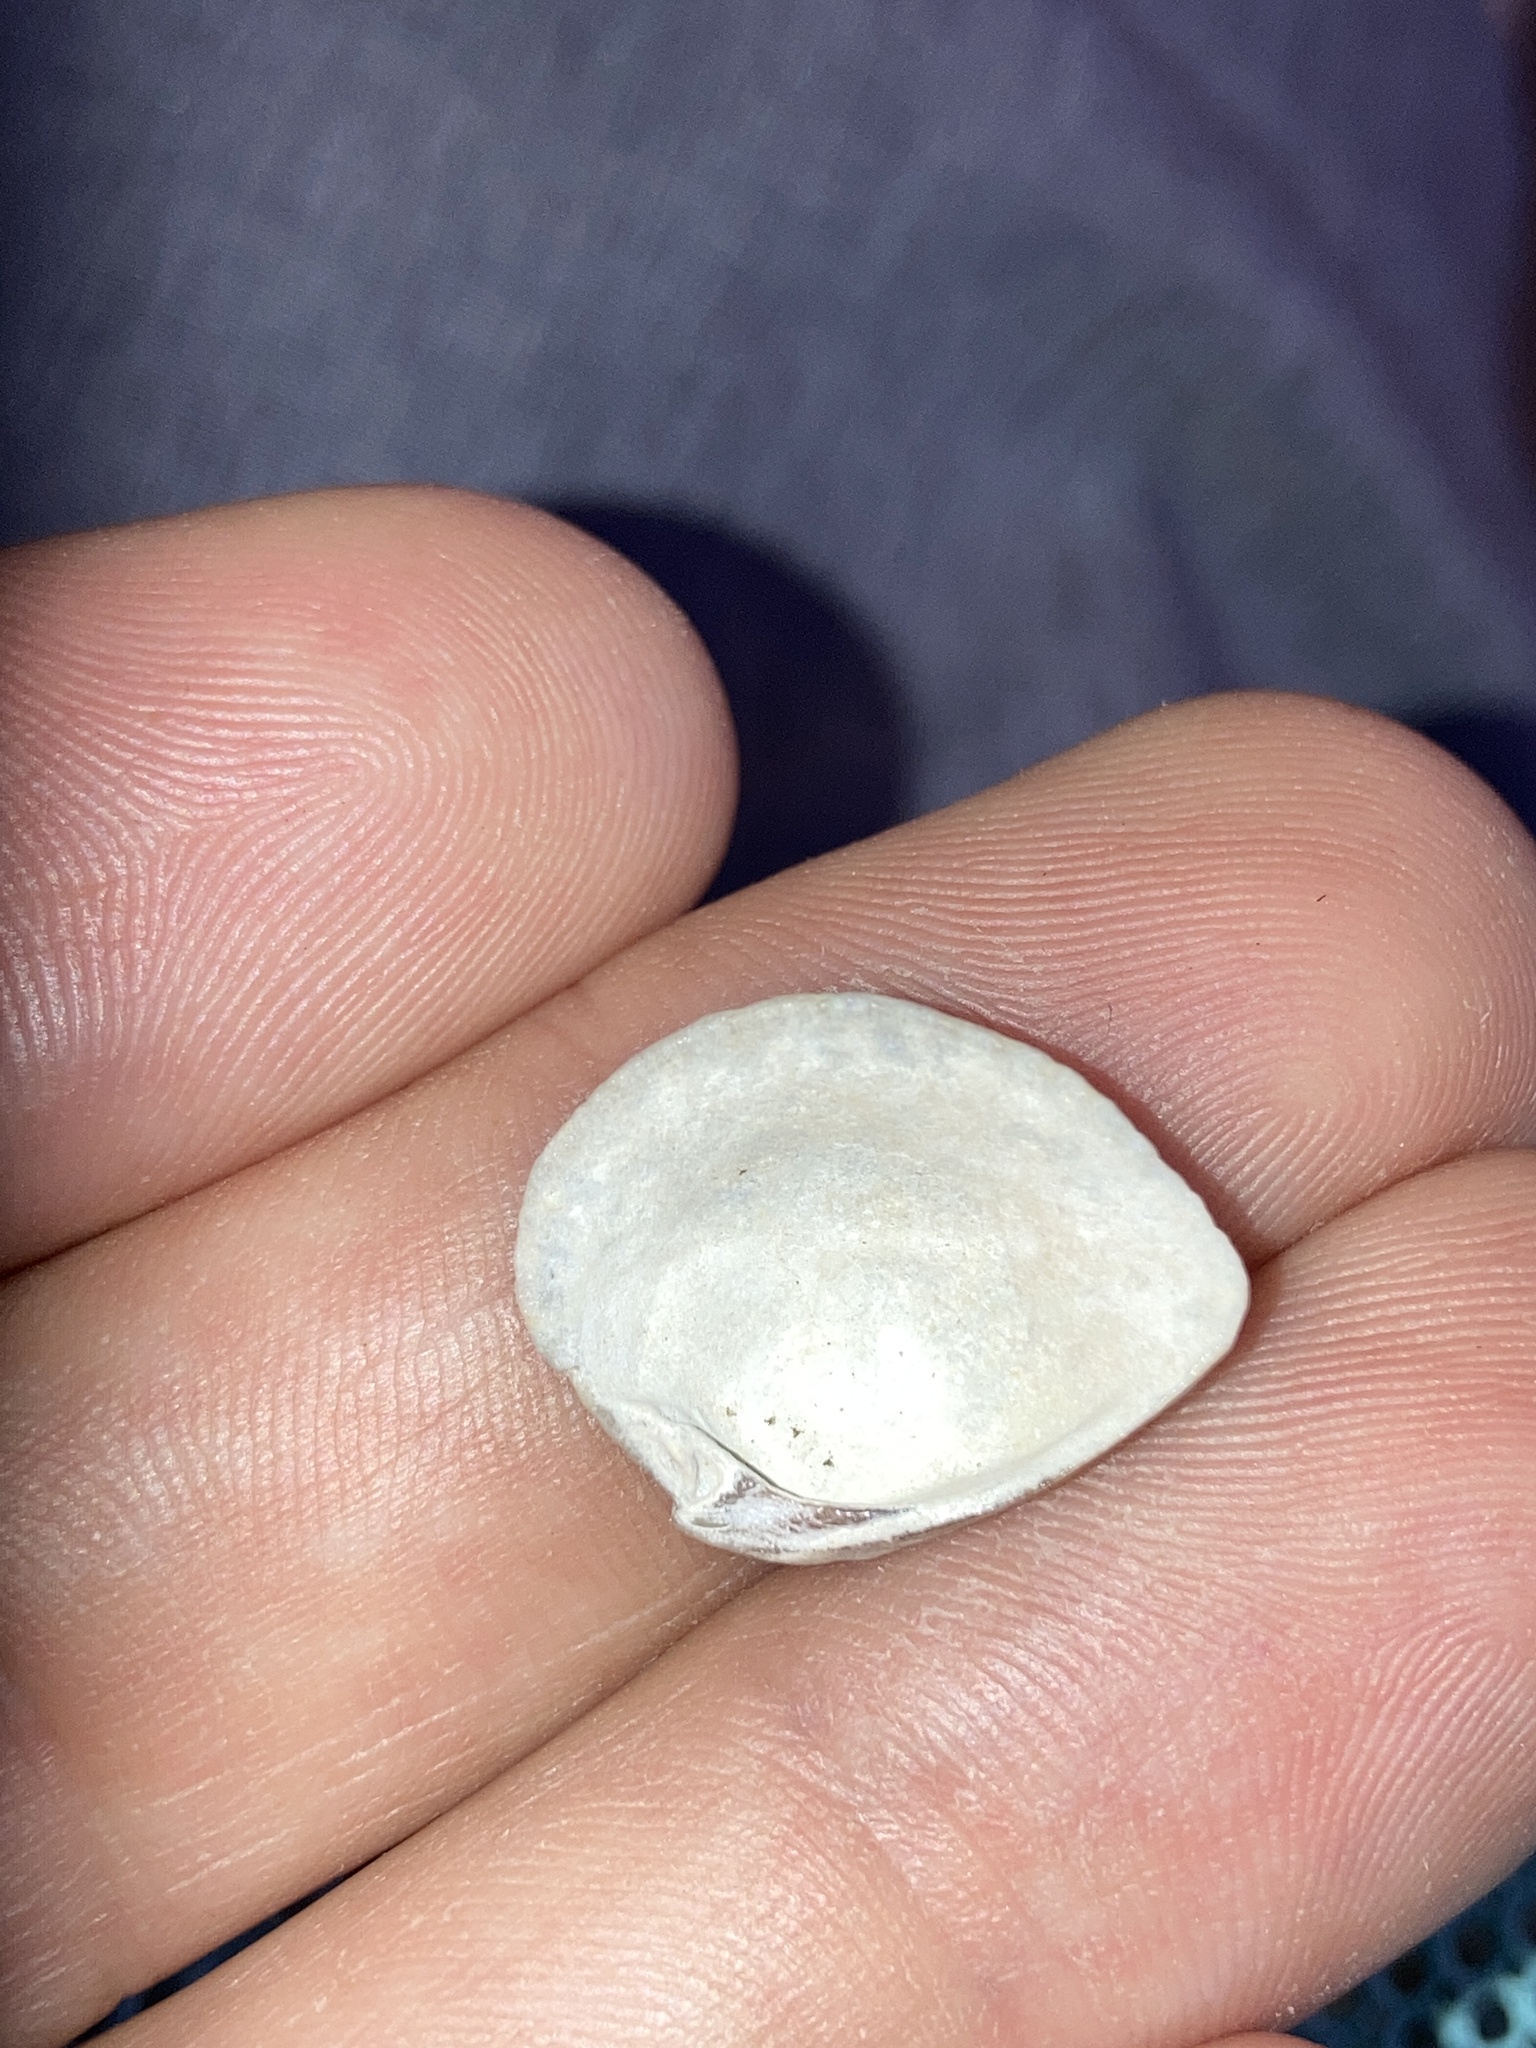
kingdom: Animalia
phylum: Mollusca
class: Bivalvia
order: Venerida
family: Veneridae
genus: Chione
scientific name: Chione elevata
